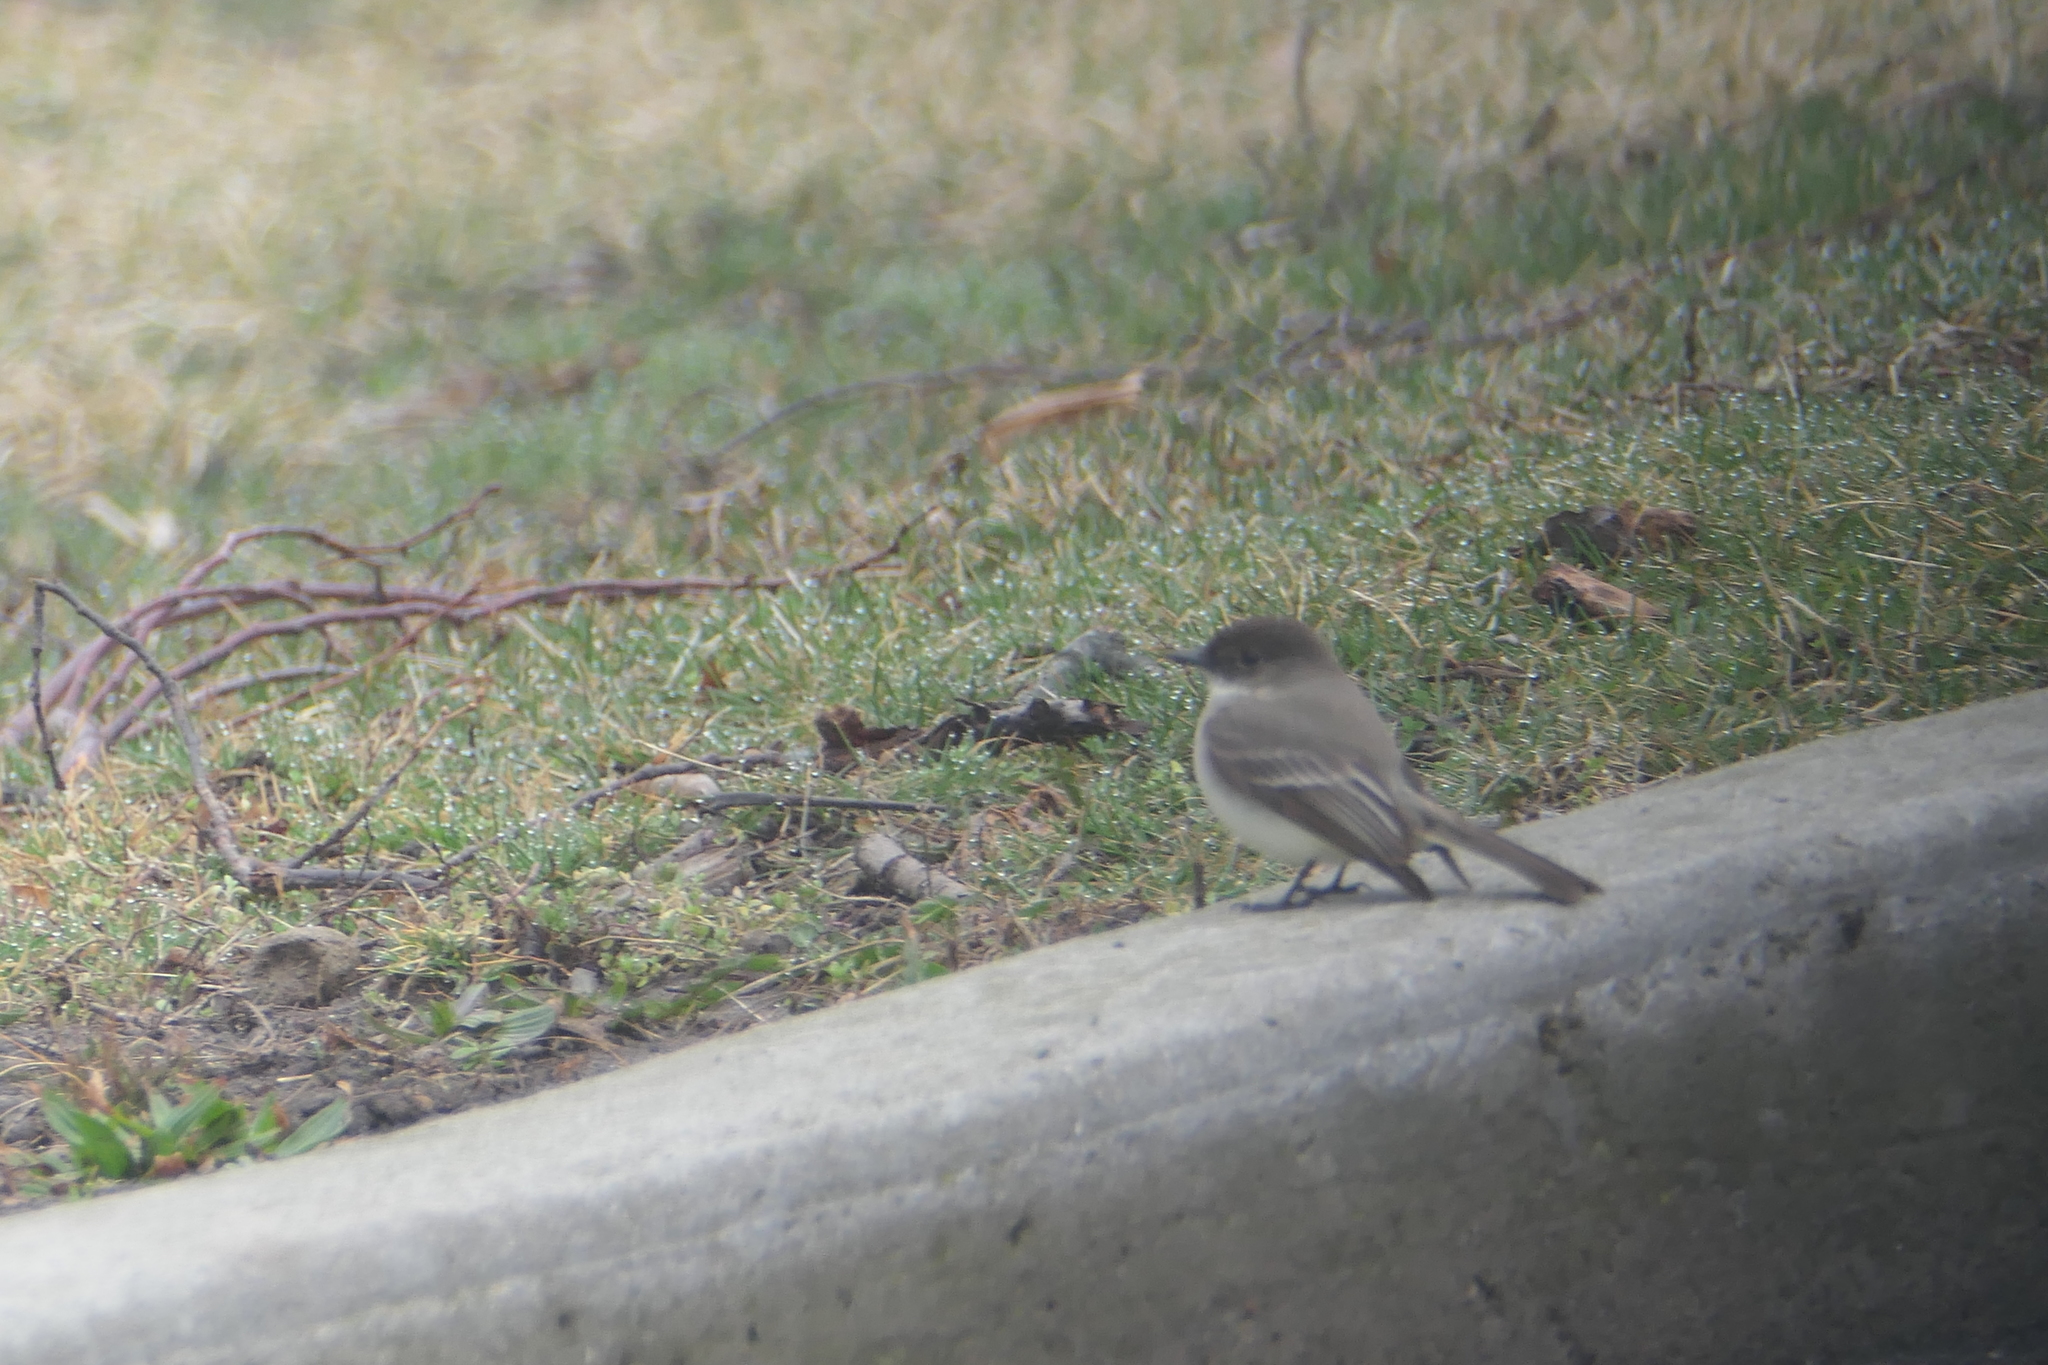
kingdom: Animalia
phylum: Chordata
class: Aves
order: Passeriformes
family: Tyrannidae
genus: Sayornis
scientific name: Sayornis phoebe
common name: Eastern phoebe
